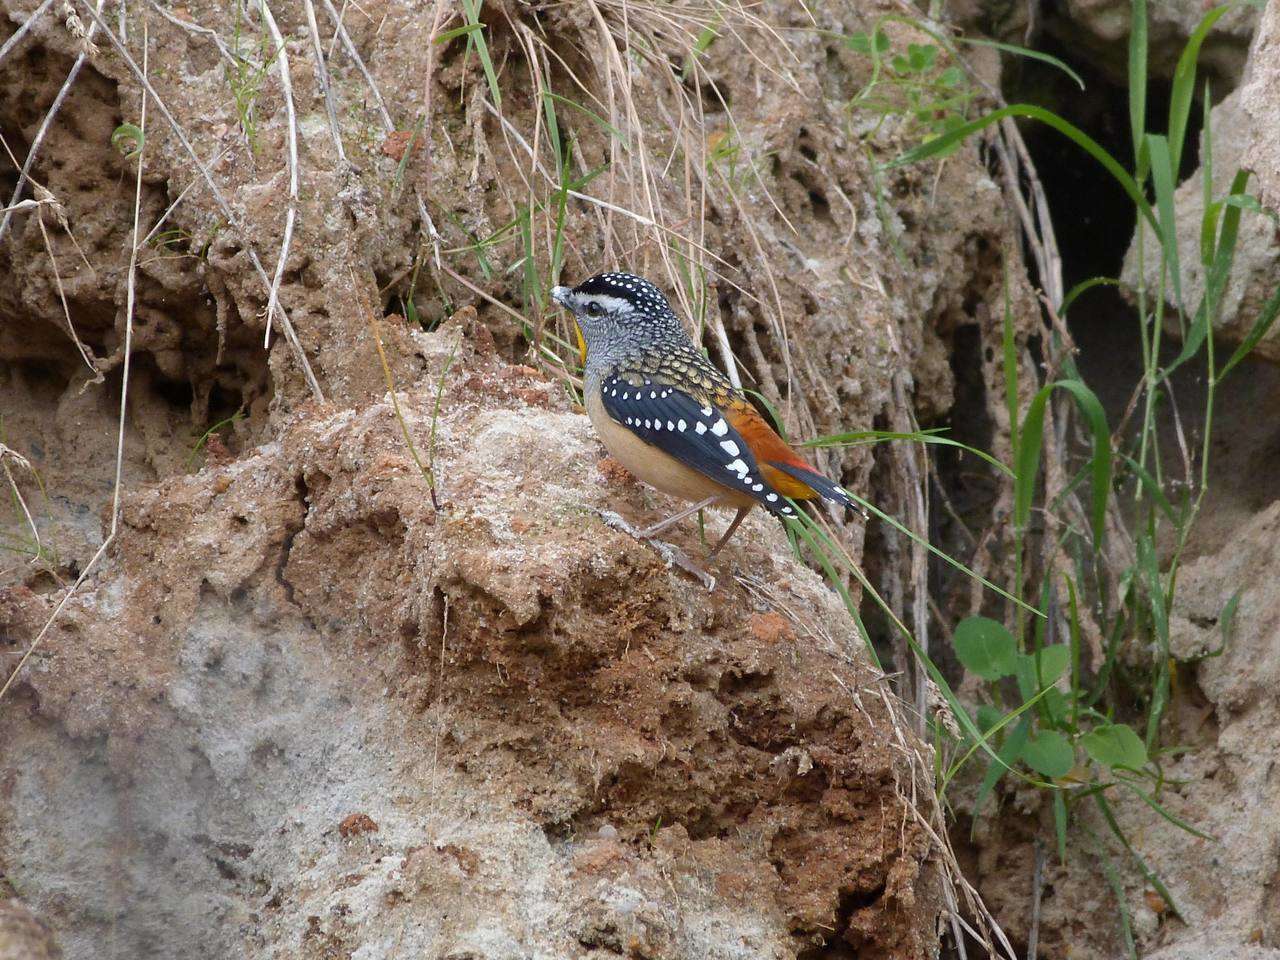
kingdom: Animalia
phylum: Chordata
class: Aves
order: Passeriformes
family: Pardalotidae
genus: Pardalotus
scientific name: Pardalotus punctatus
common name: Spotted pardalote
